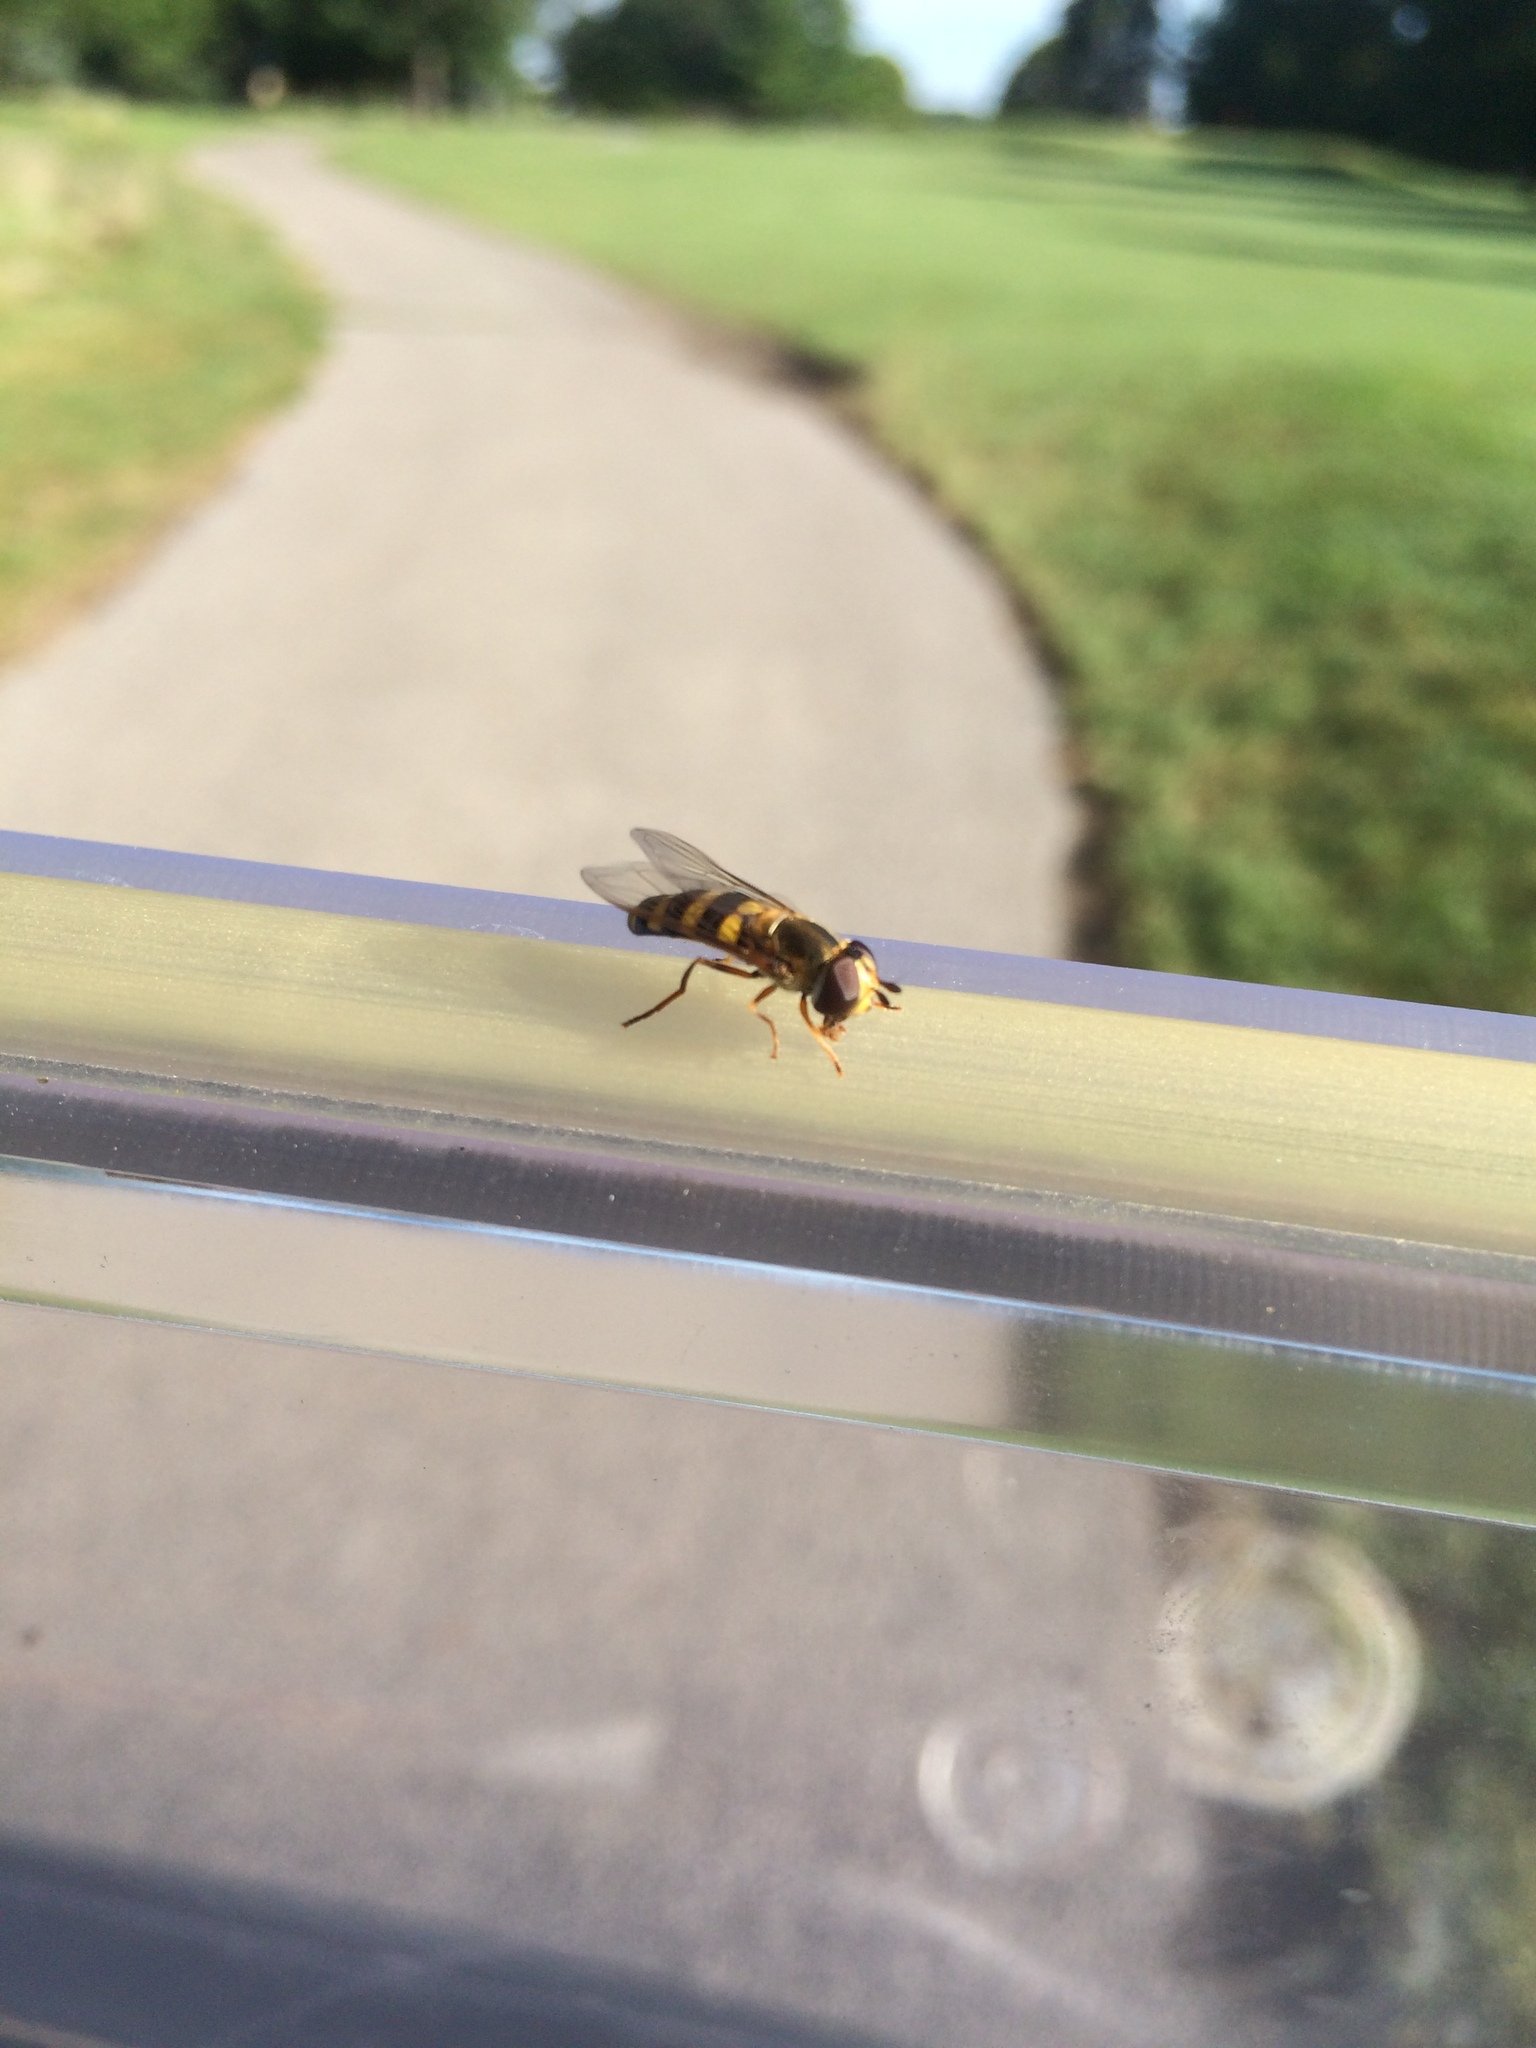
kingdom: Animalia
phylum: Arthropoda
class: Insecta
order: Diptera
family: Syrphidae
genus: Eupeodes
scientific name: Eupeodes
